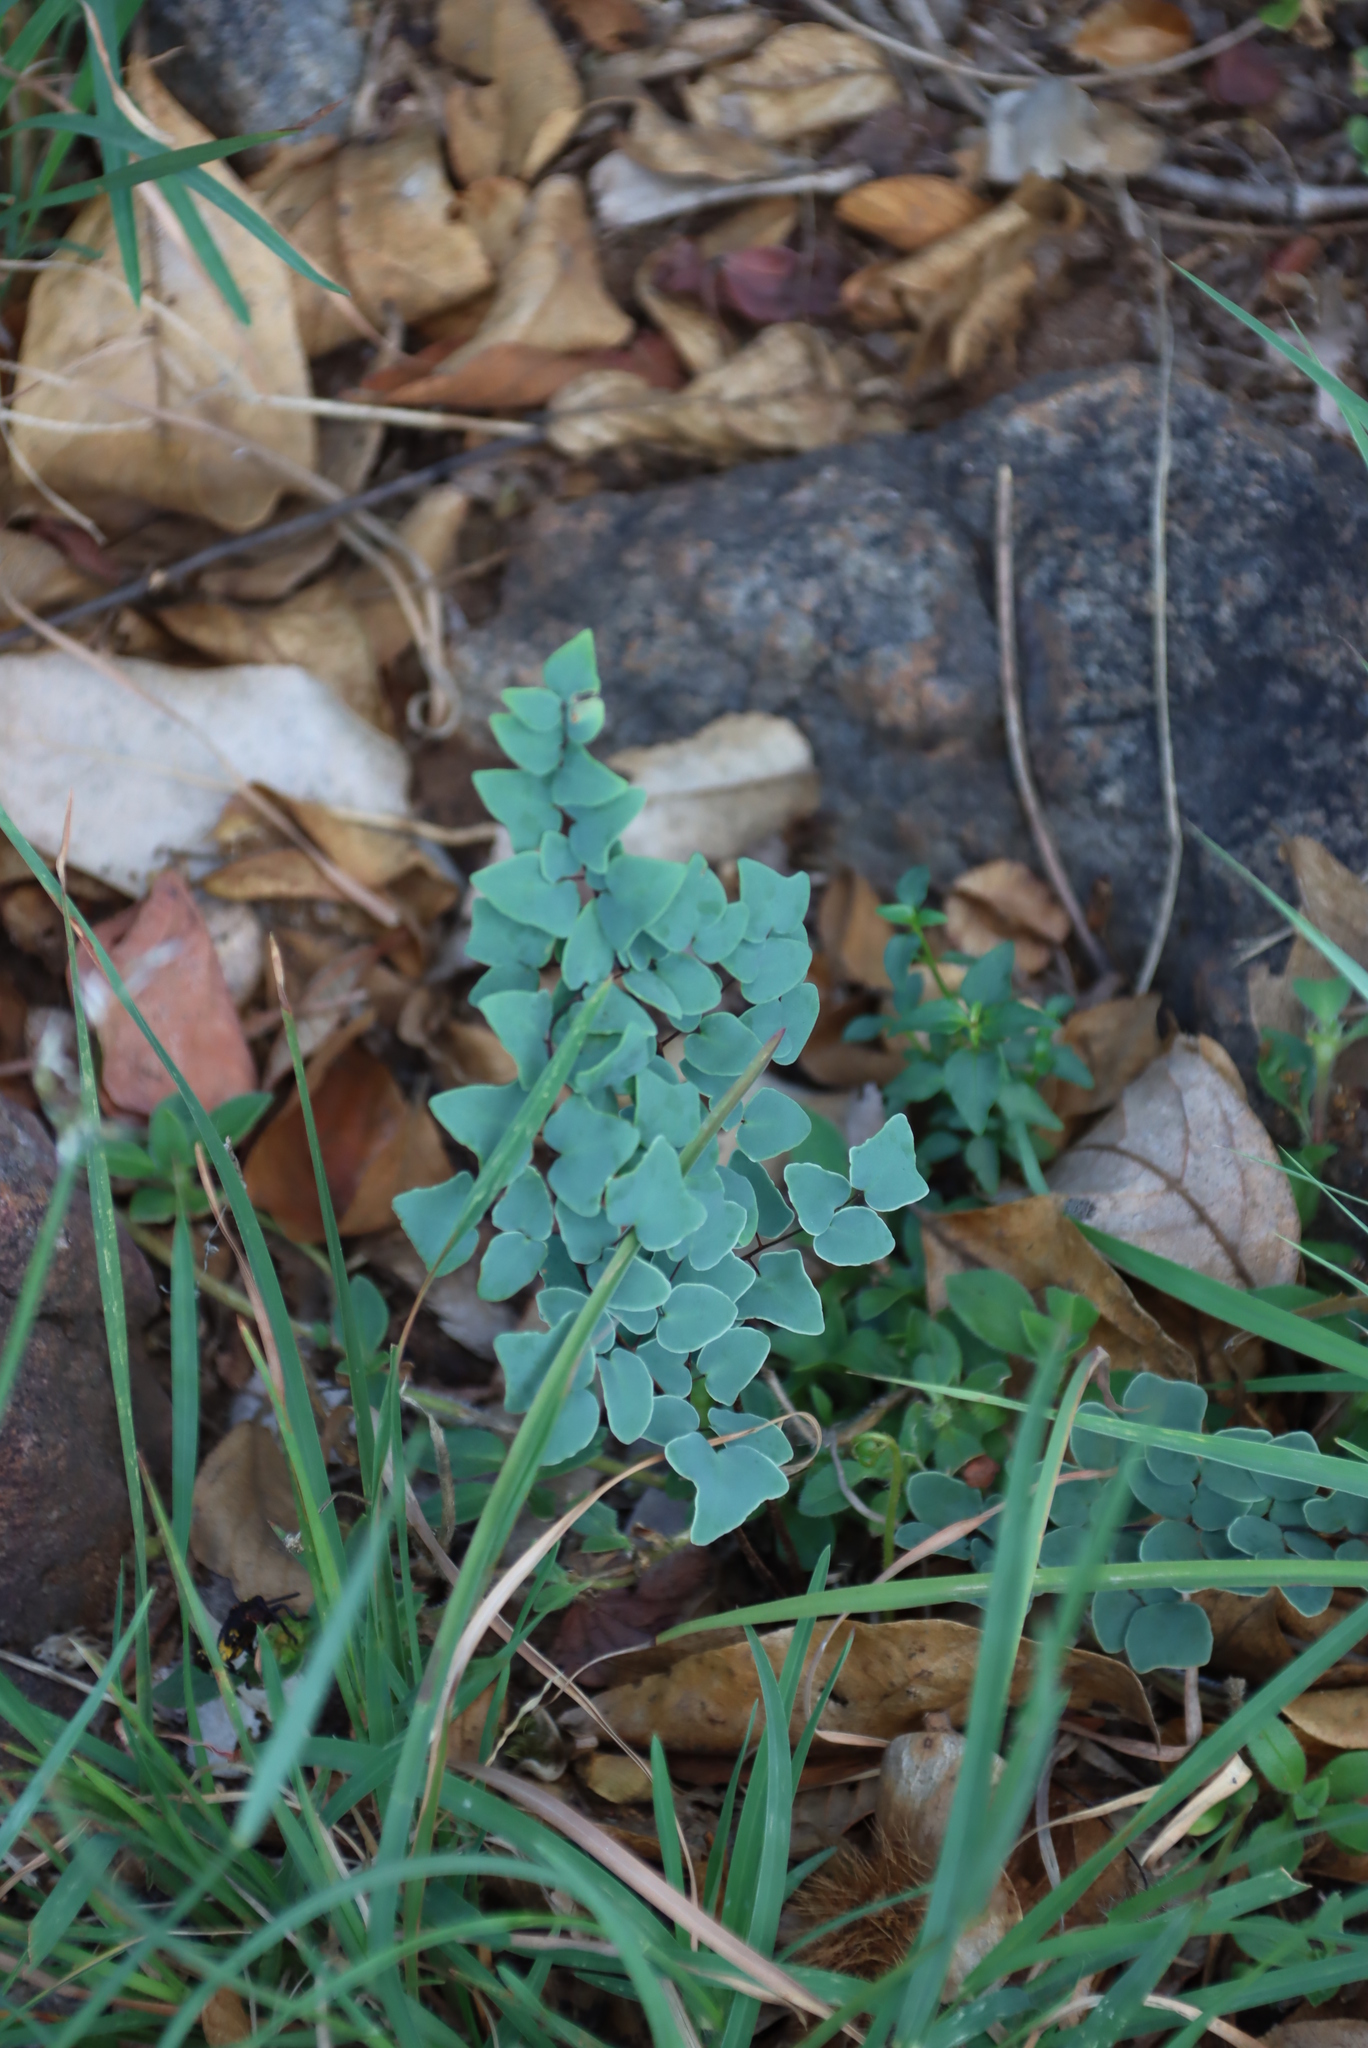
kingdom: Plantae
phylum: Tracheophyta
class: Polypodiopsida
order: Polypodiales
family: Pteridaceae
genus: Pellaea
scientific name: Pellaea calomelanos
